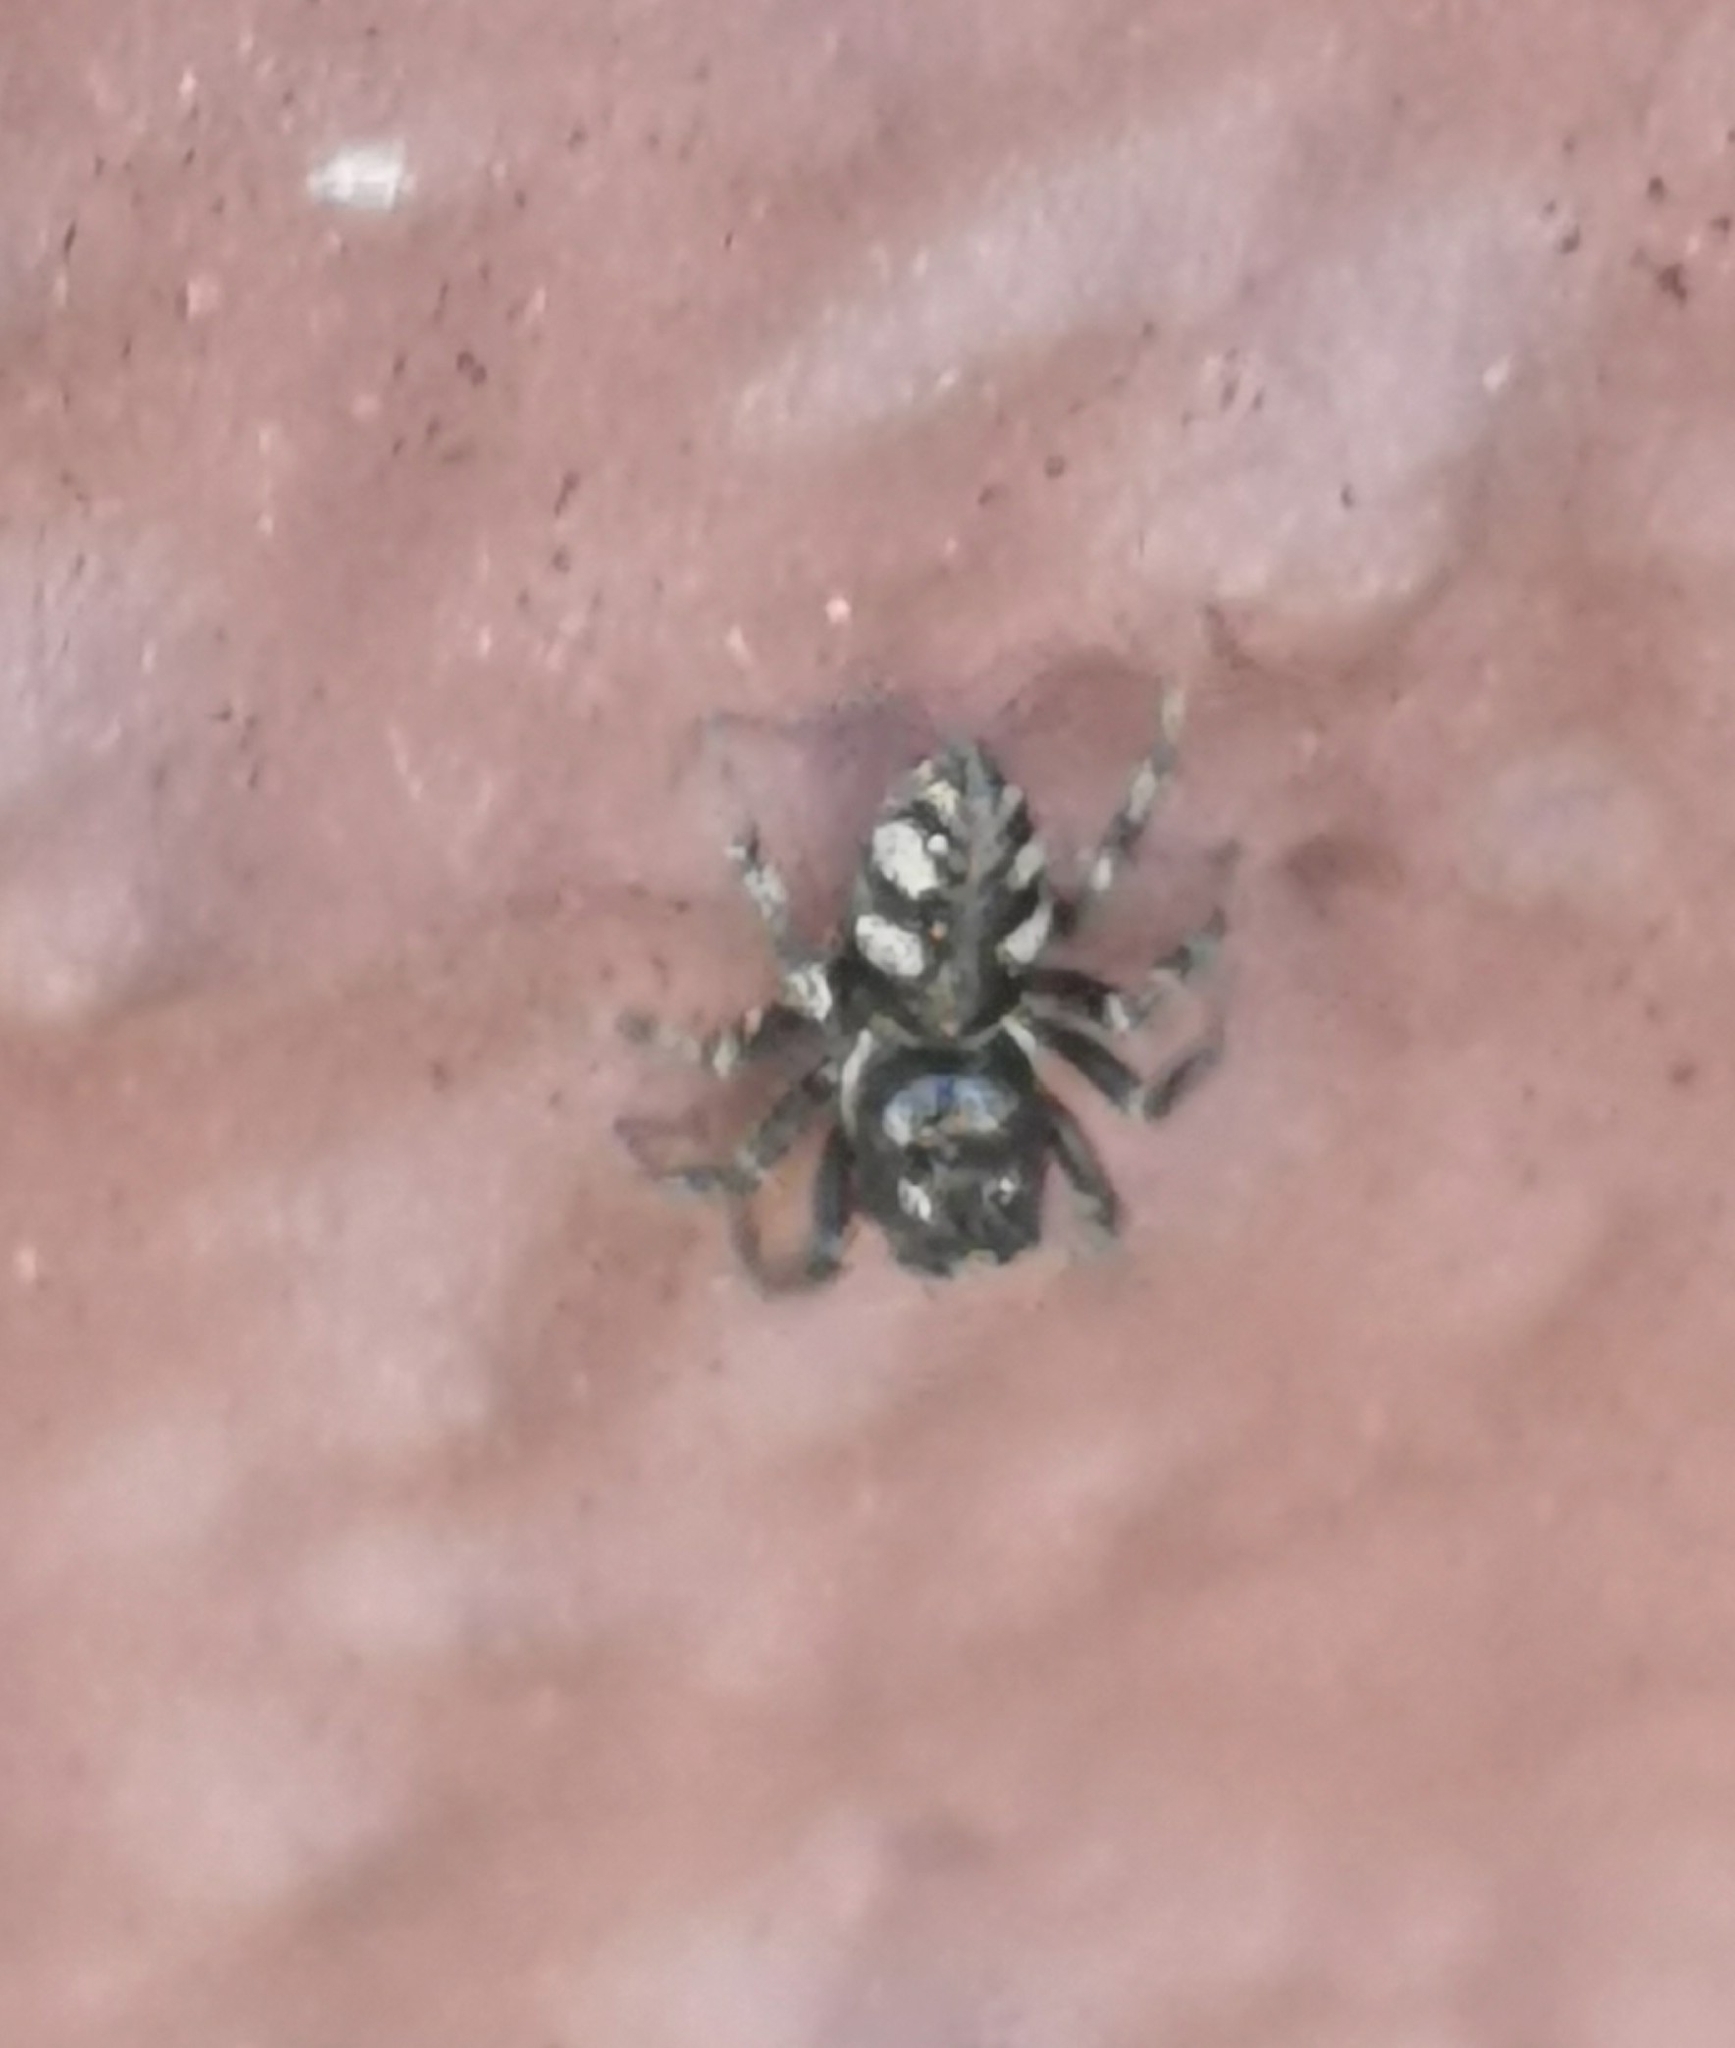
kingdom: Animalia
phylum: Arthropoda
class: Arachnida
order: Araneae
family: Salticidae
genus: Salticus
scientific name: Salticus cingulatus
